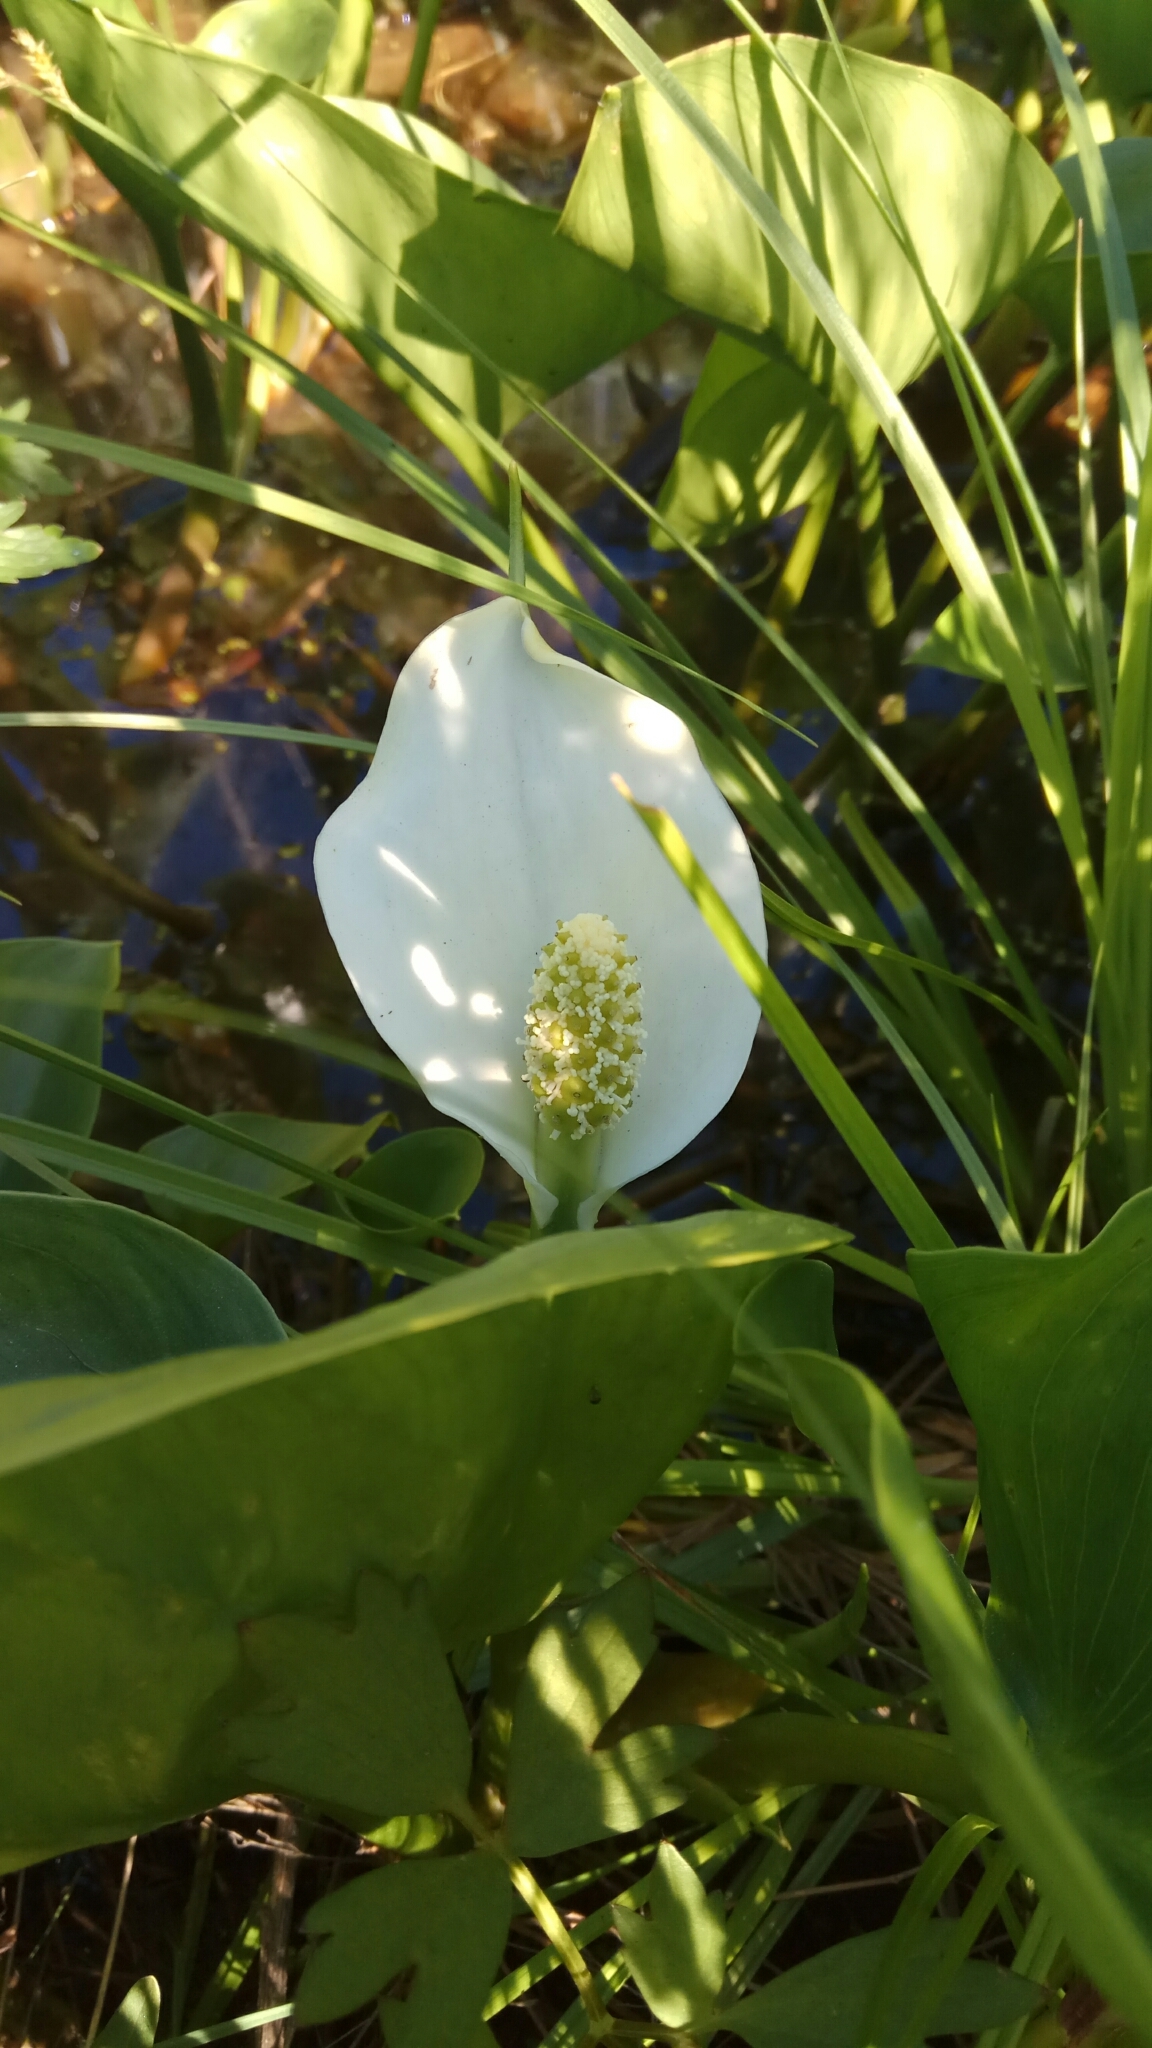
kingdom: Plantae
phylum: Tracheophyta
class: Liliopsida
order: Alismatales
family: Araceae
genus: Calla
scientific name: Calla palustris
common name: Bog arum
